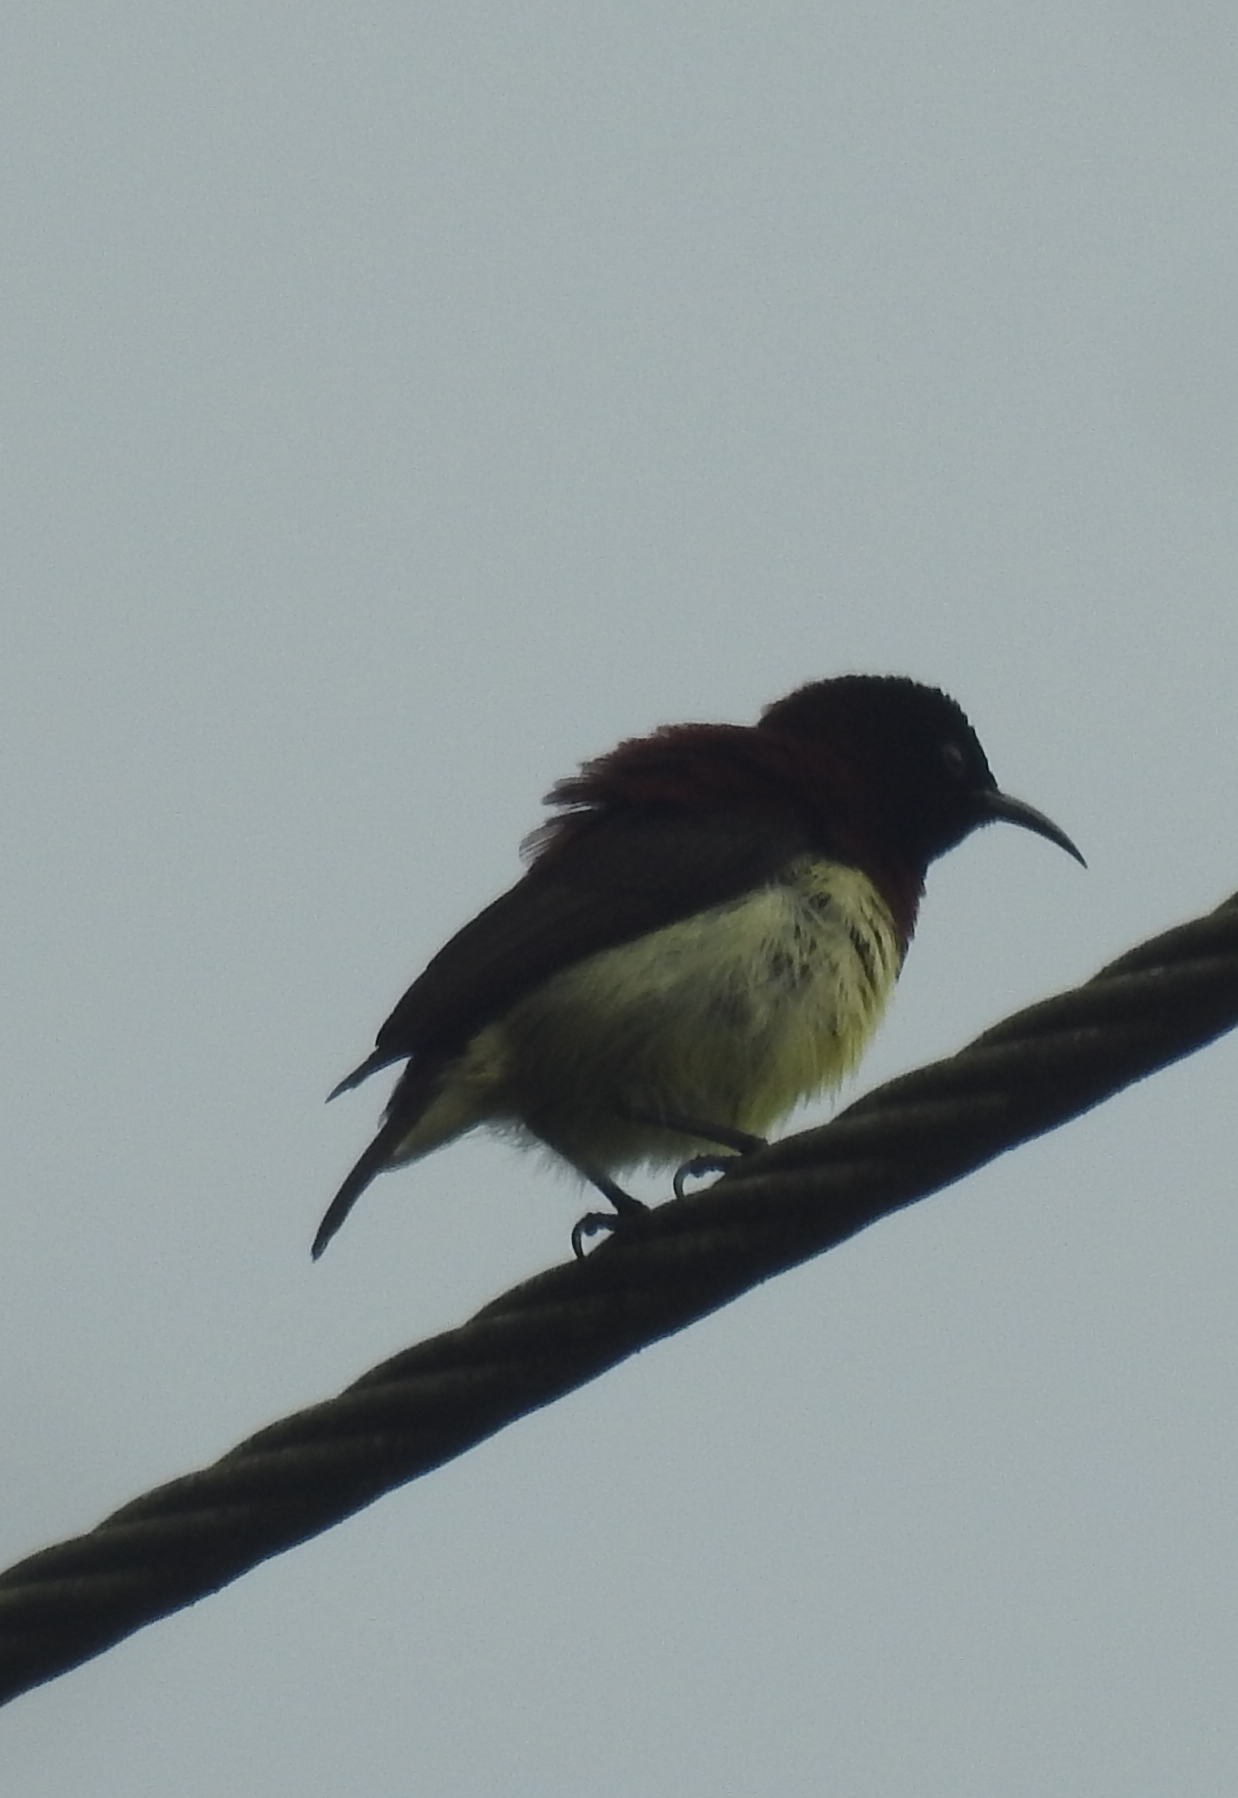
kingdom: Animalia
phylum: Chordata
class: Aves
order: Passeriformes
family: Nectariniidae
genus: Leptocoma
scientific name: Leptocoma zeylonica
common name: Purple-rumped sunbird
